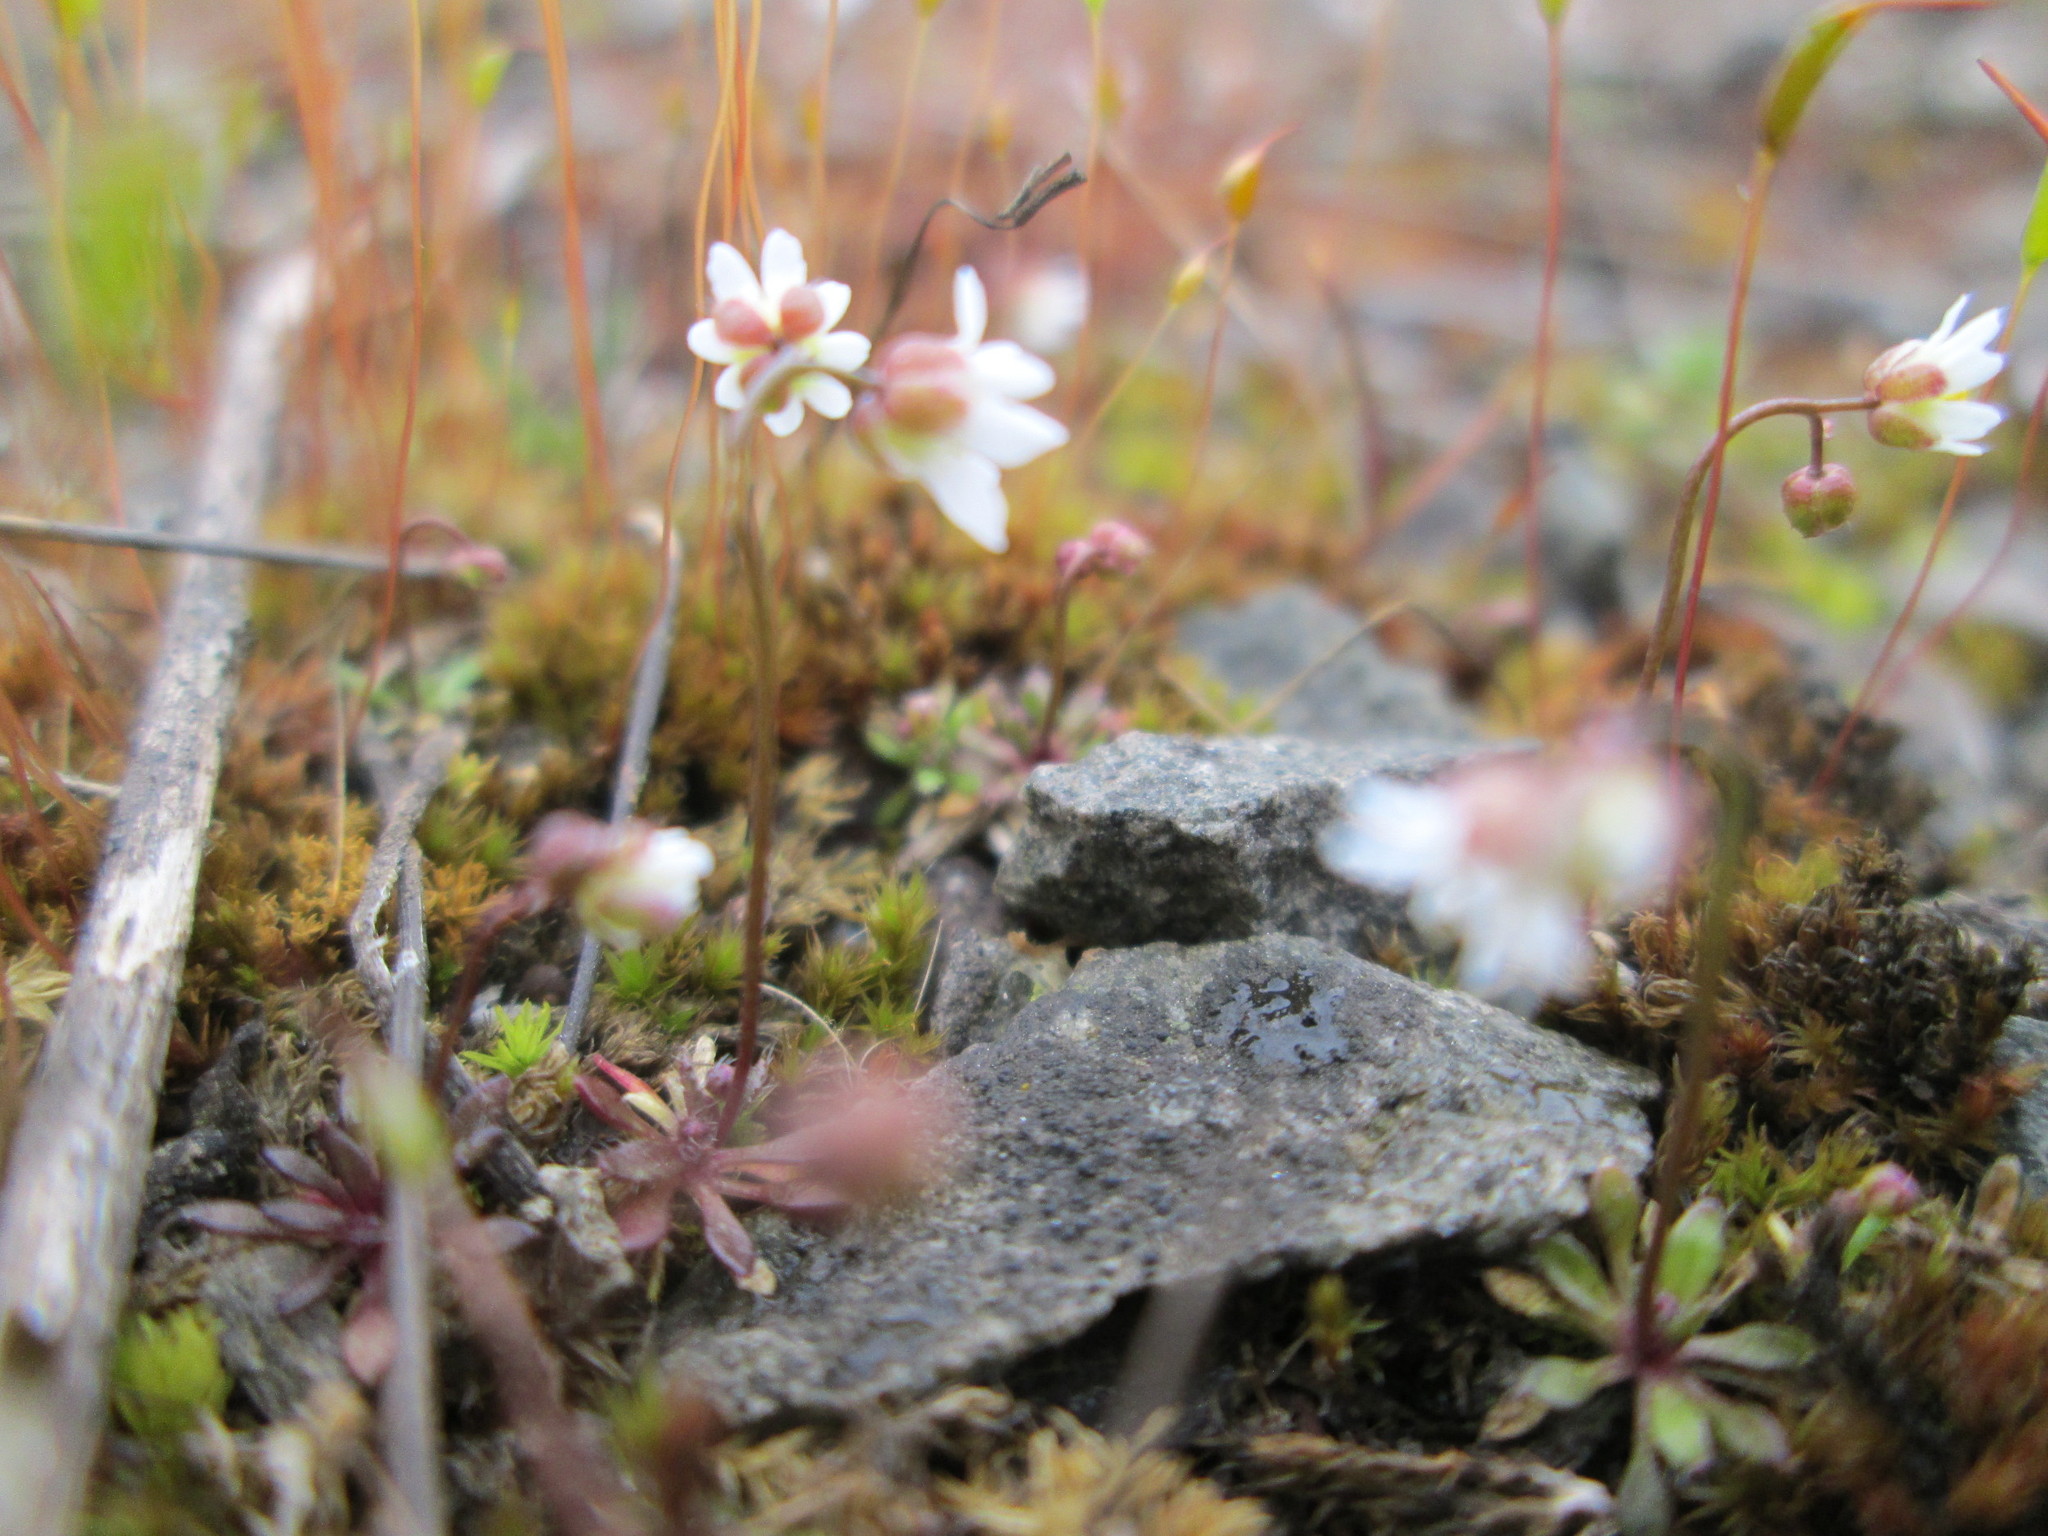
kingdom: Plantae
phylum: Tracheophyta
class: Magnoliopsida
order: Brassicales
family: Brassicaceae
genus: Draba
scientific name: Draba verna
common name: Spring draba
